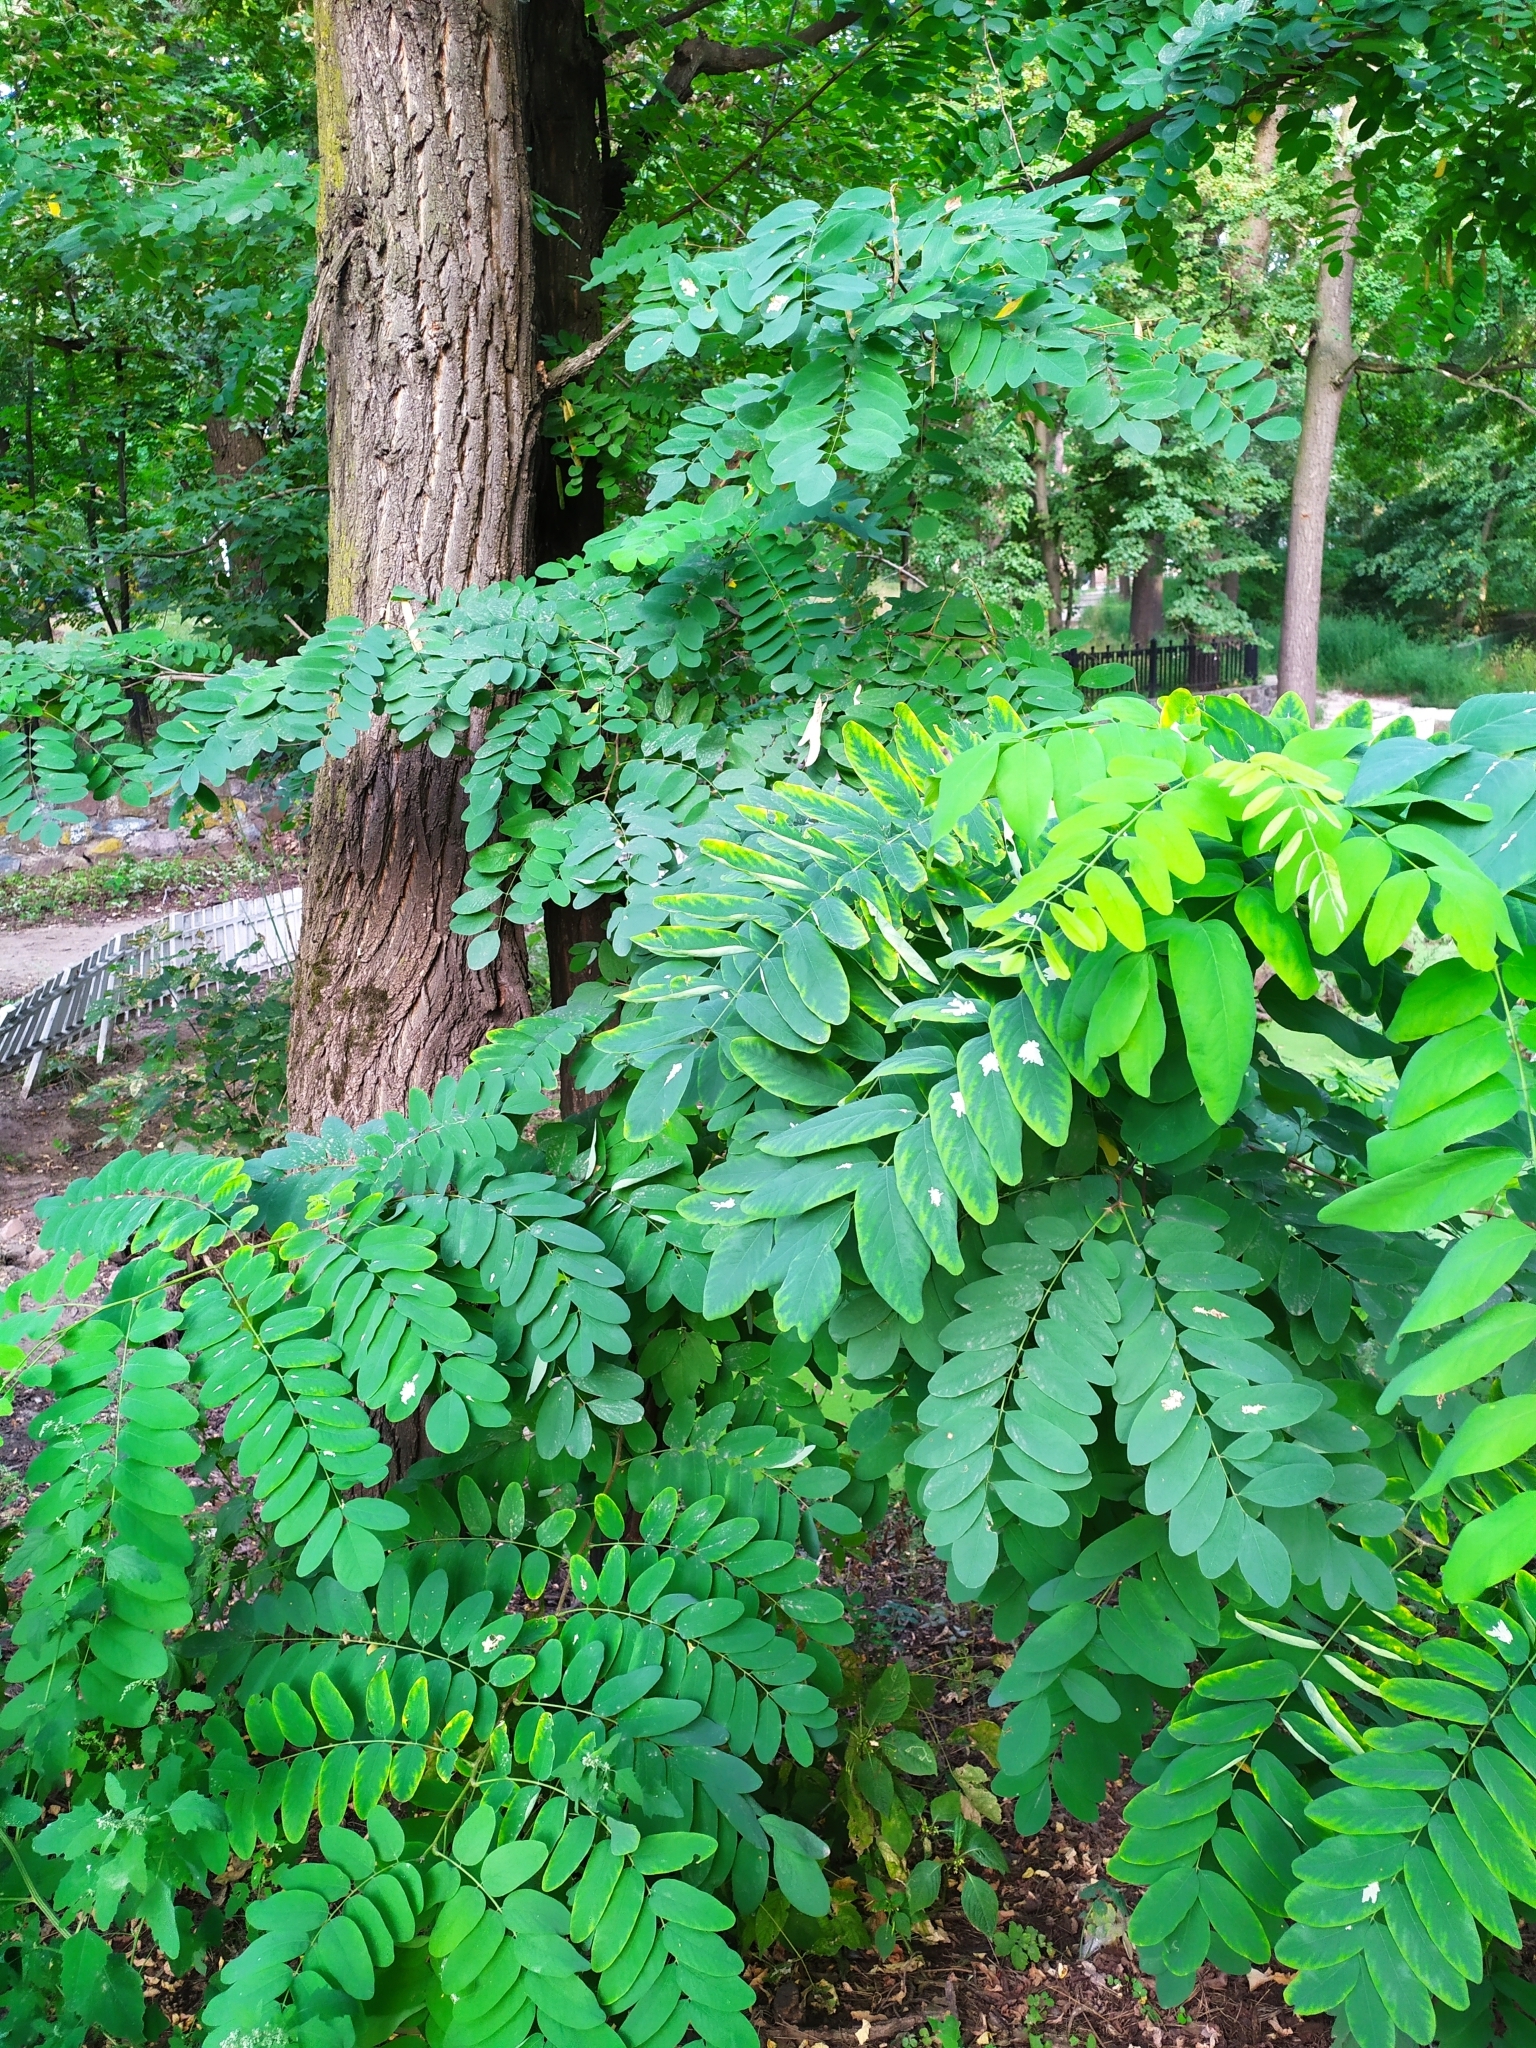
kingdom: Plantae
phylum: Tracheophyta
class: Magnoliopsida
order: Fabales
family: Fabaceae
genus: Robinia
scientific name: Robinia pseudoacacia
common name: Black locust
